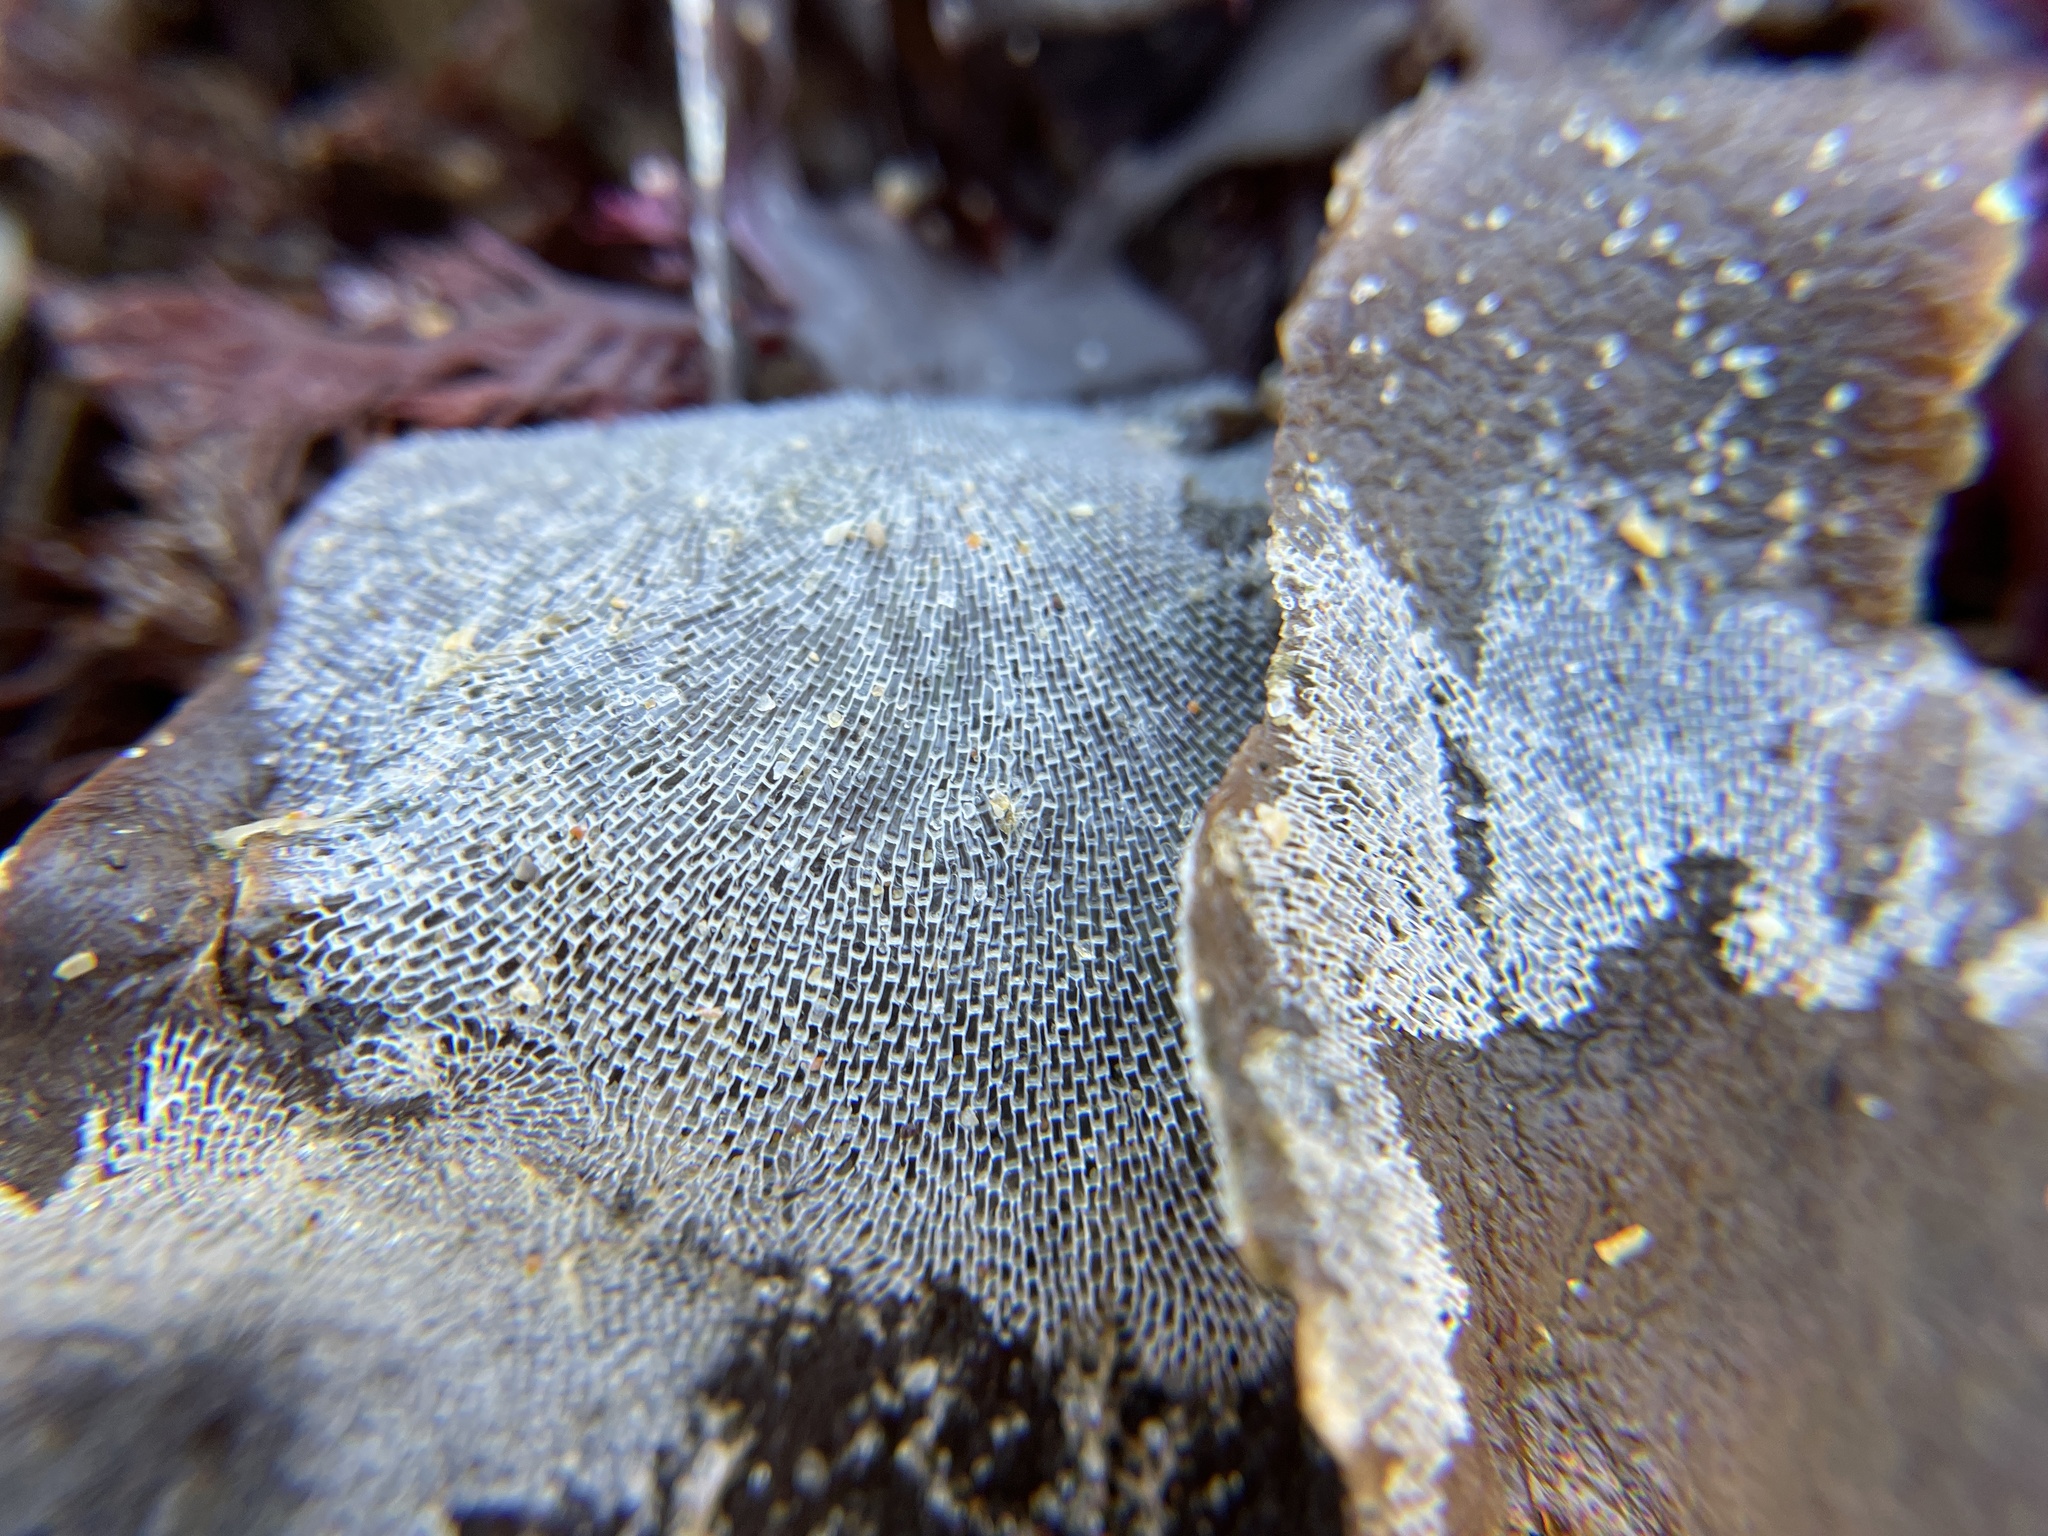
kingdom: Animalia
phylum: Bryozoa
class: Gymnolaemata
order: Cheilostomatida
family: Membraniporidae
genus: Membranipora
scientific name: Membranipora membranacea
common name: Sea mat
